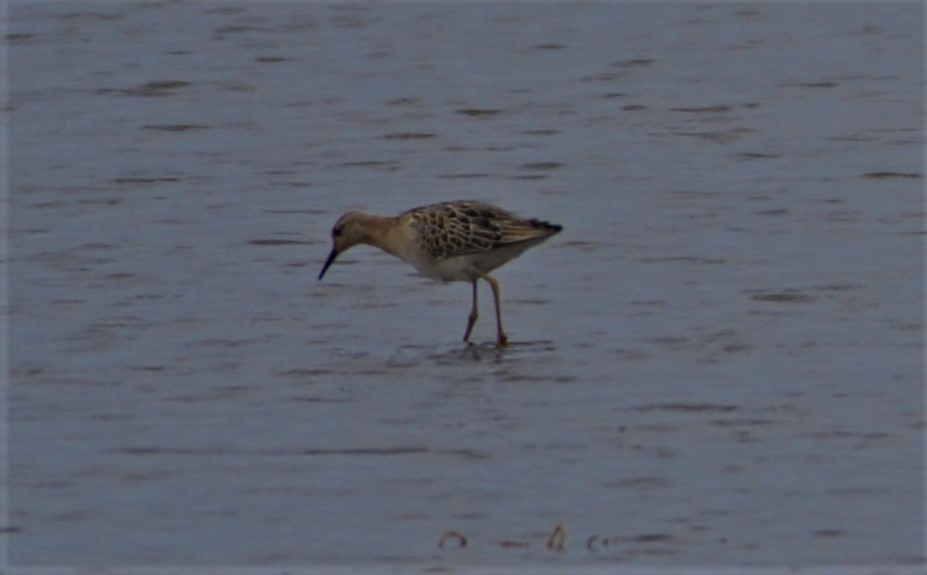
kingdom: Animalia
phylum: Chordata
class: Aves
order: Charadriiformes
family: Scolopacidae
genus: Calidris
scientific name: Calidris pugnax
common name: Ruff
